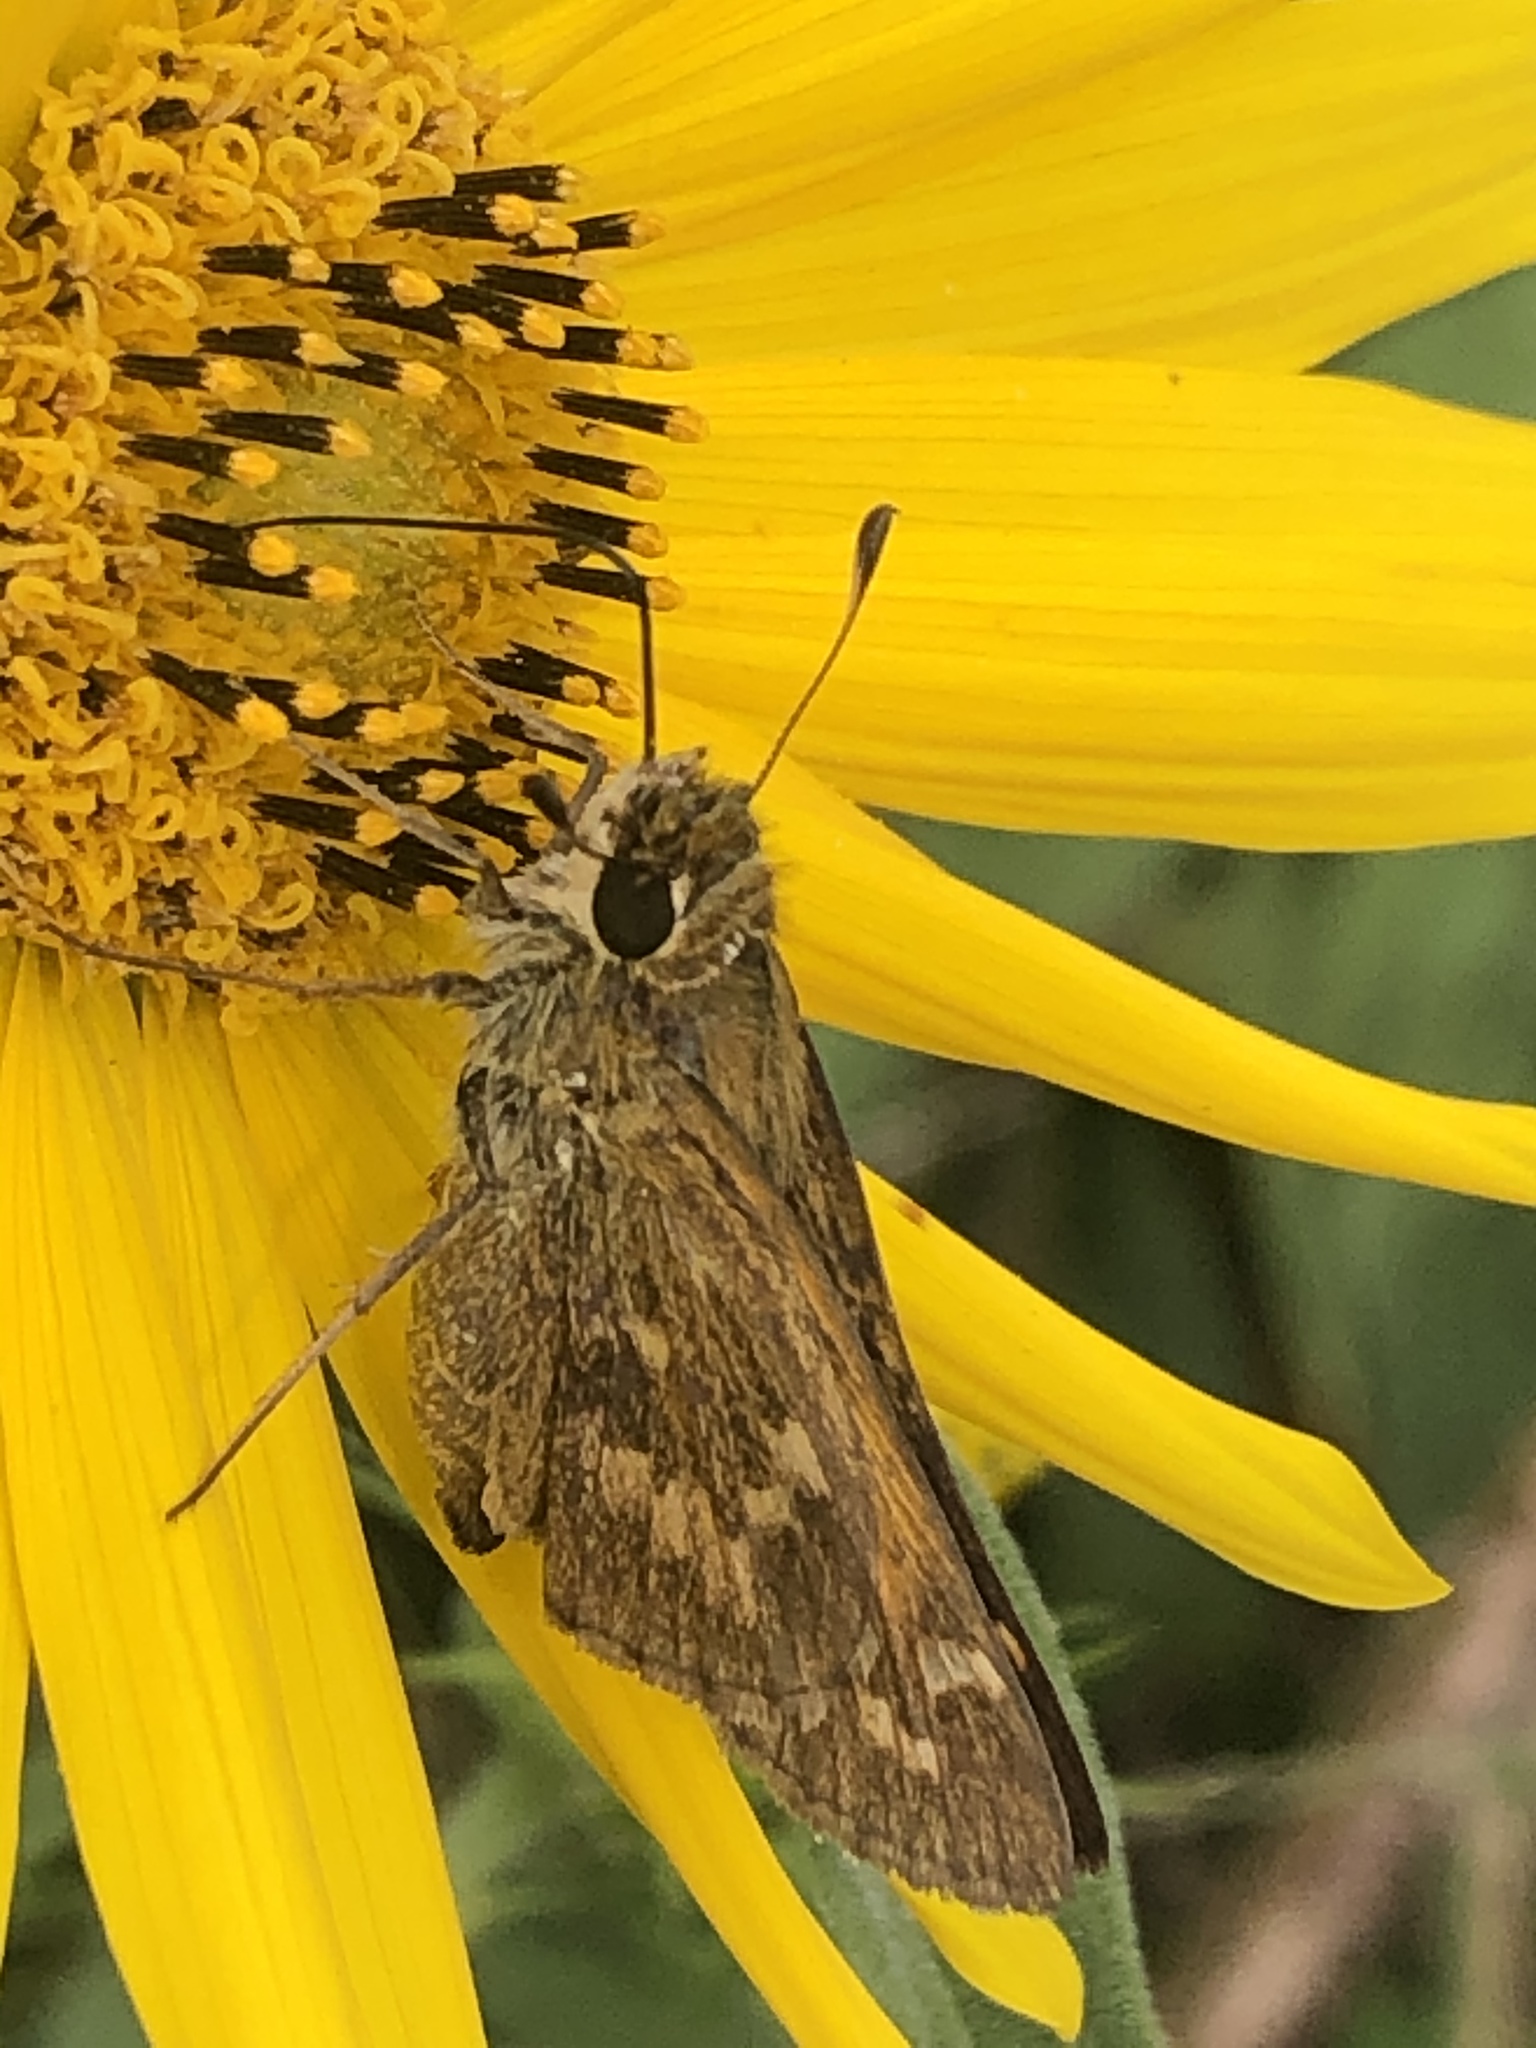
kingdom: Animalia
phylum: Arthropoda
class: Insecta
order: Lepidoptera
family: Hesperiidae
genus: Atalopedes
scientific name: Atalopedes
